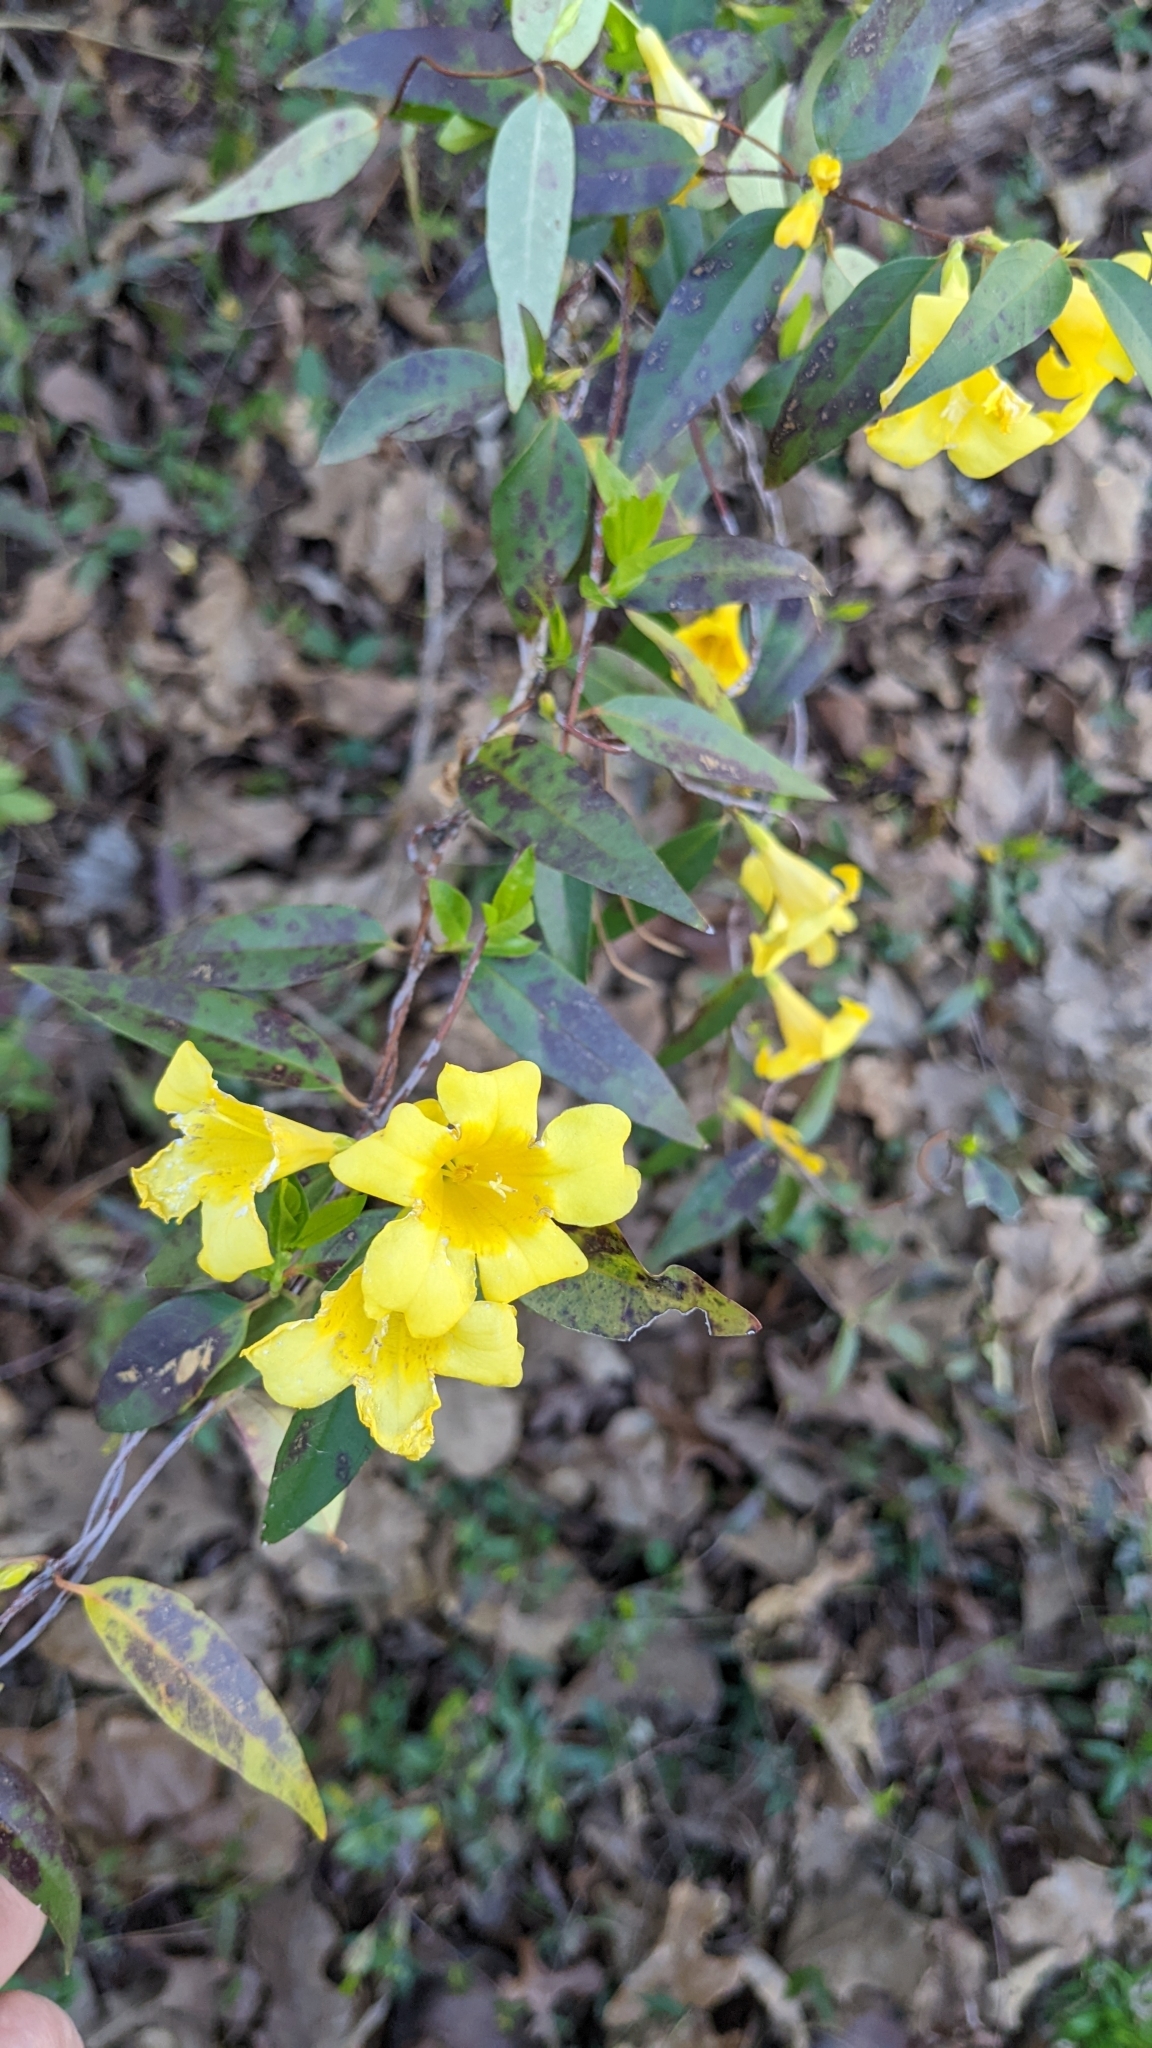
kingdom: Plantae
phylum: Tracheophyta
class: Magnoliopsida
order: Gentianales
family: Gelsemiaceae
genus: Gelsemium
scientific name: Gelsemium sempervirens
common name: Carolina-jasmine
